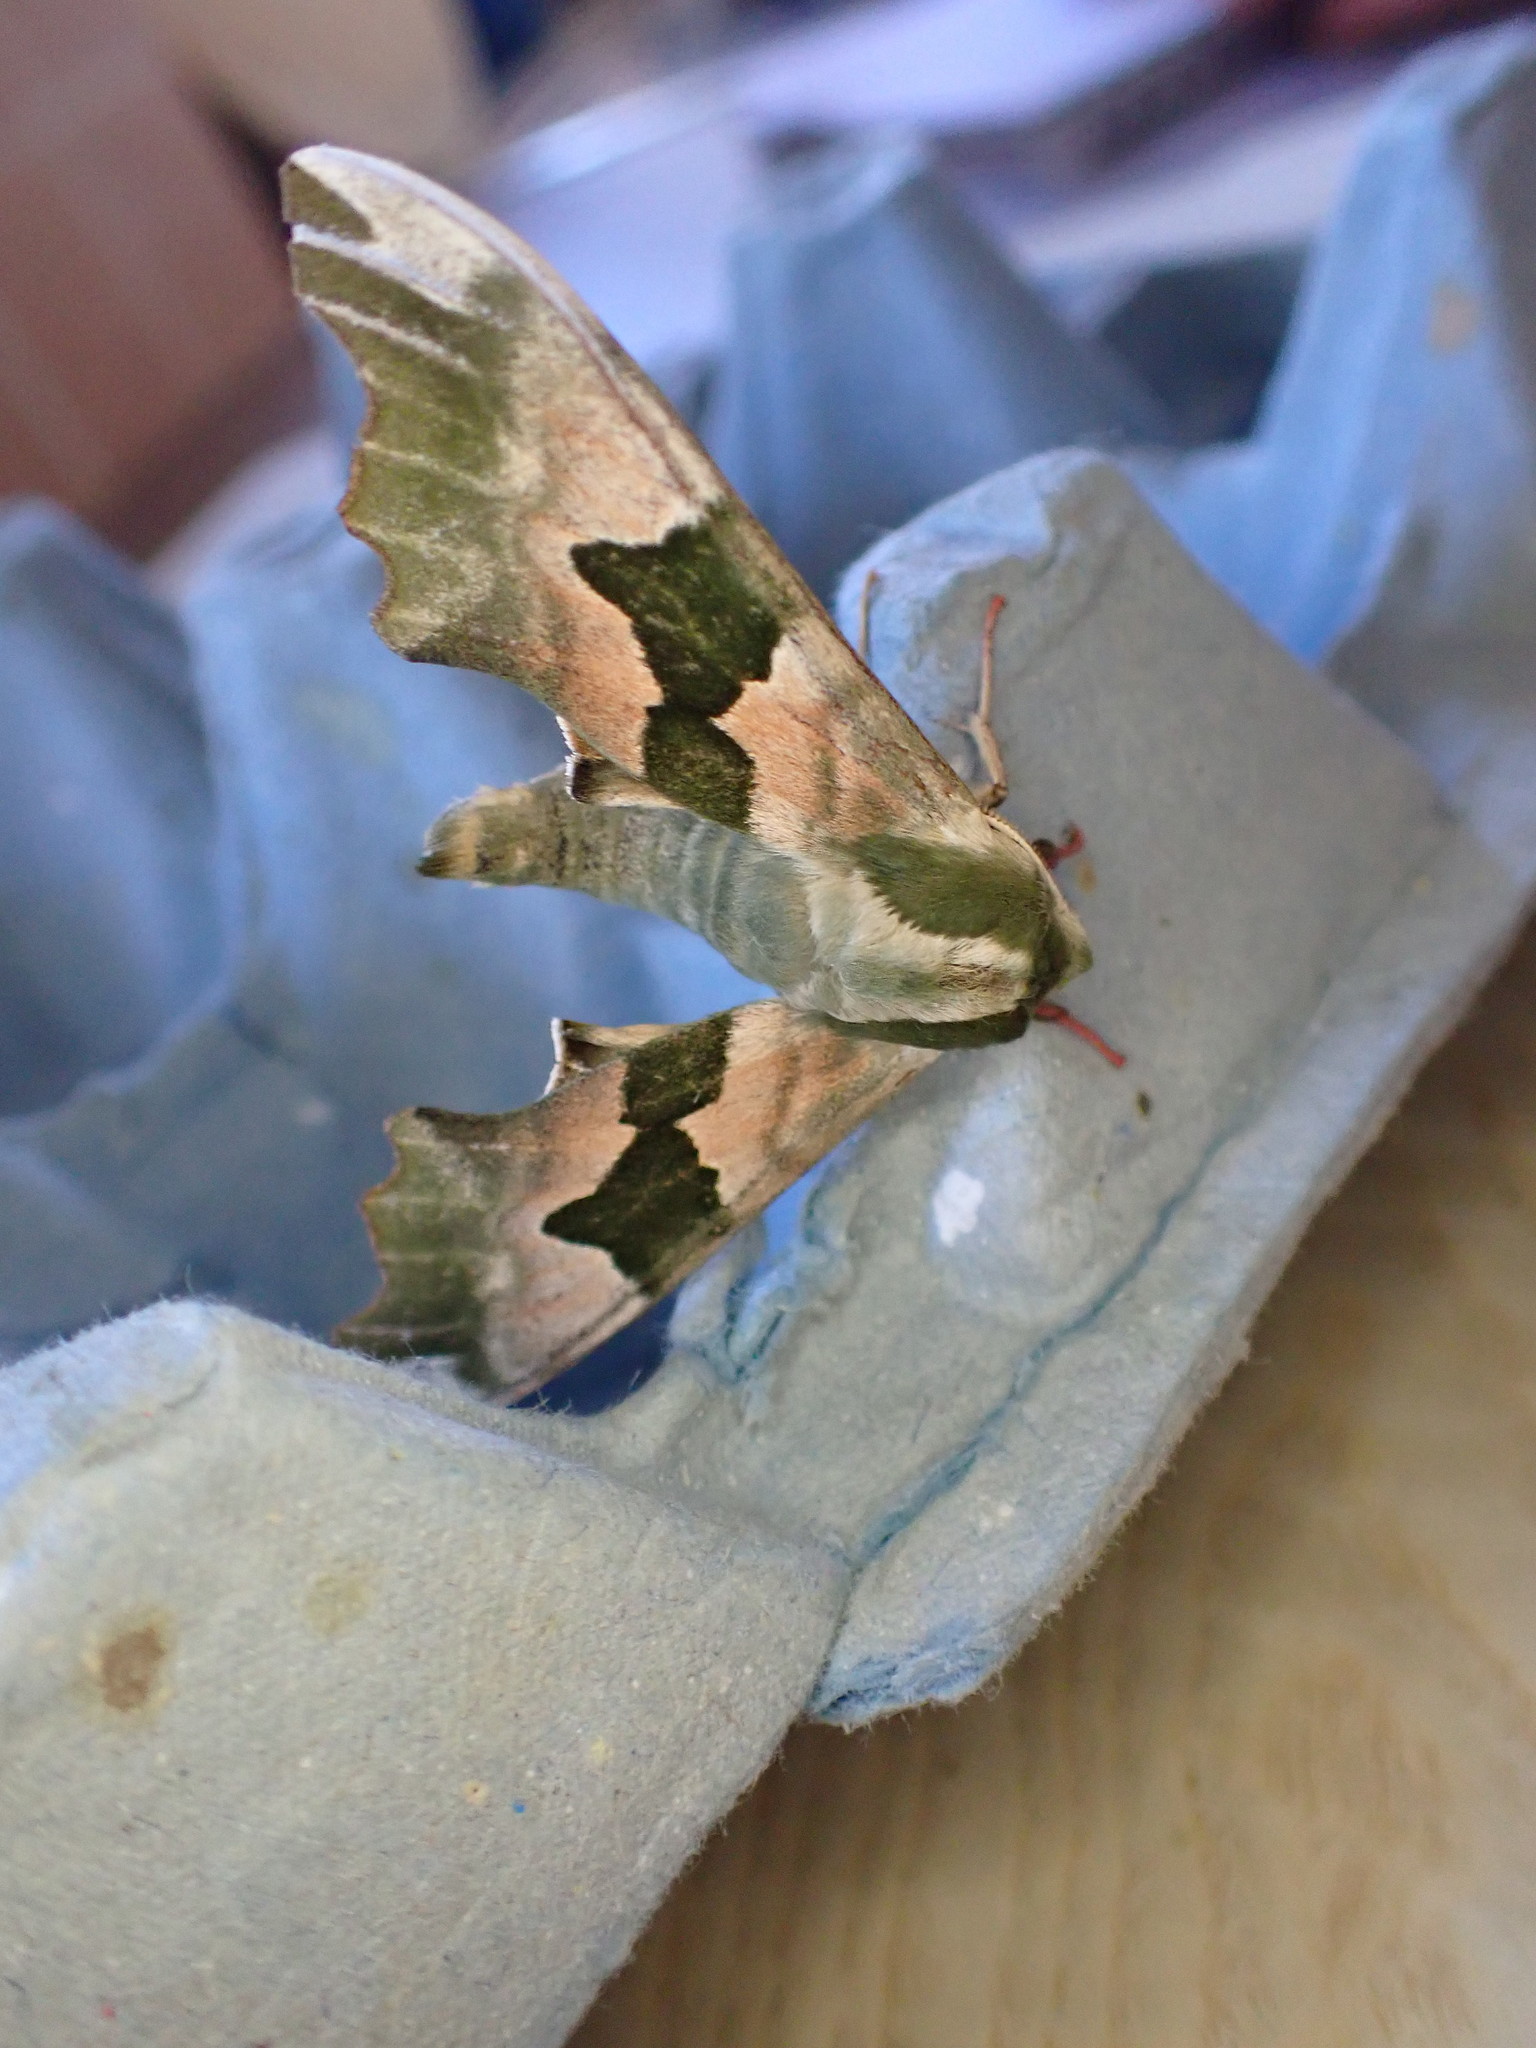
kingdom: Animalia
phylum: Arthropoda
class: Insecta
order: Lepidoptera
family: Sphingidae
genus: Mimas
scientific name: Mimas tiliae
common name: Lime hawk-moth
